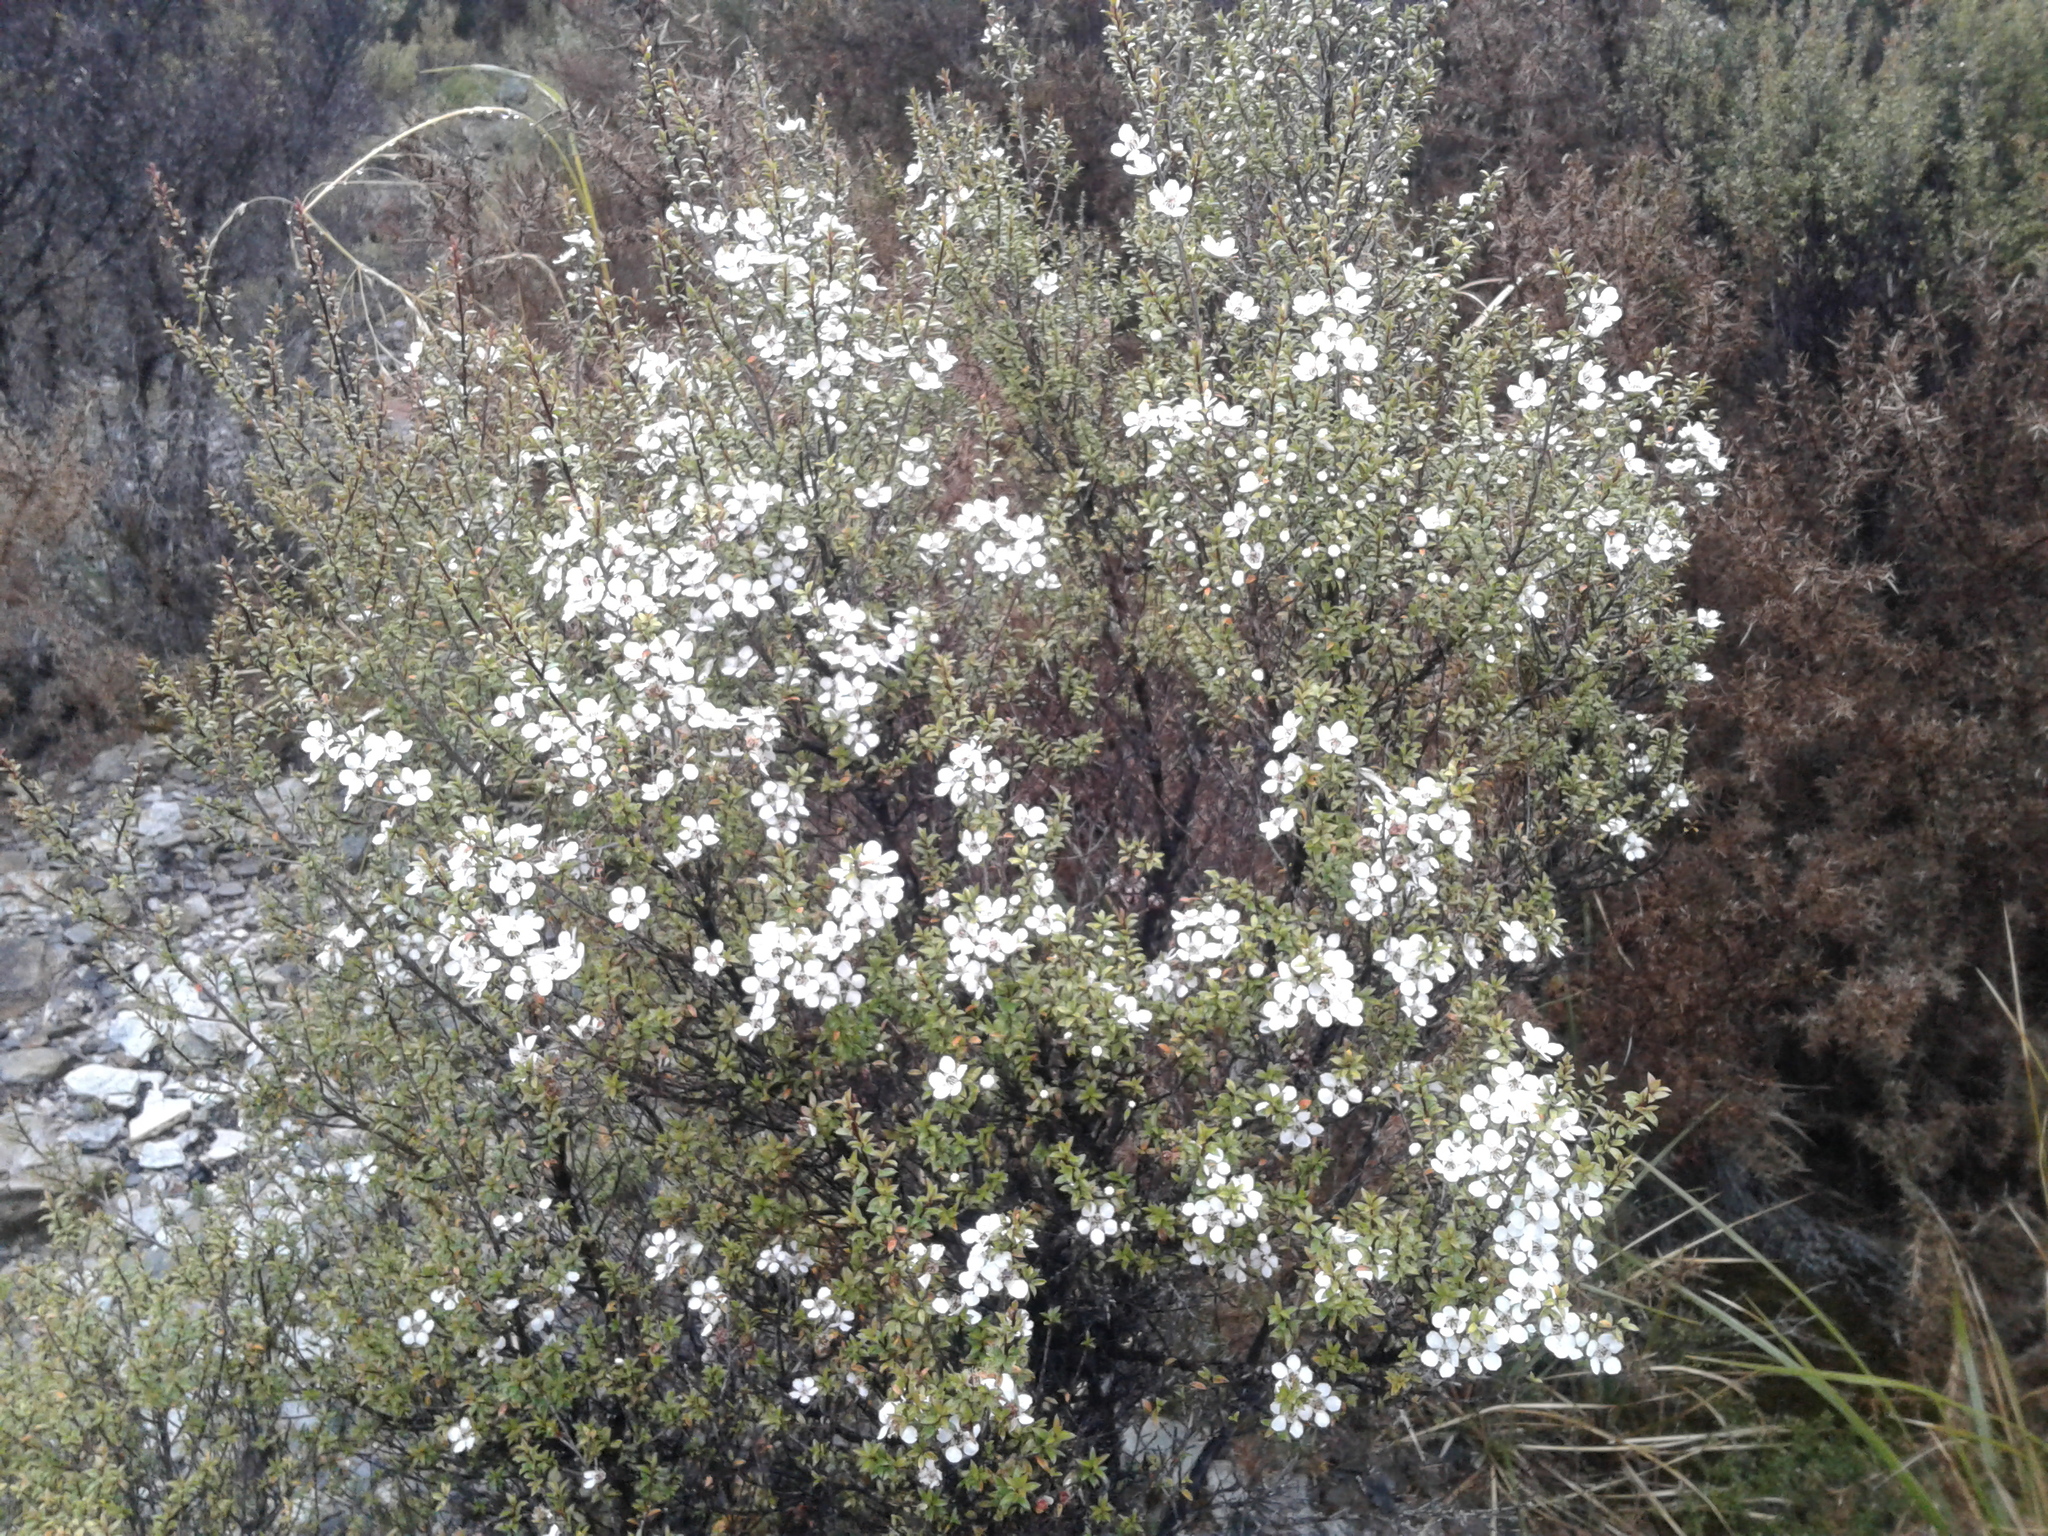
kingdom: Plantae
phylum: Tracheophyta
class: Magnoliopsida
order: Myrtales
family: Myrtaceae
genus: Leptospermum
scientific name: Leptospermum scoparium
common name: Broom tea-tree
